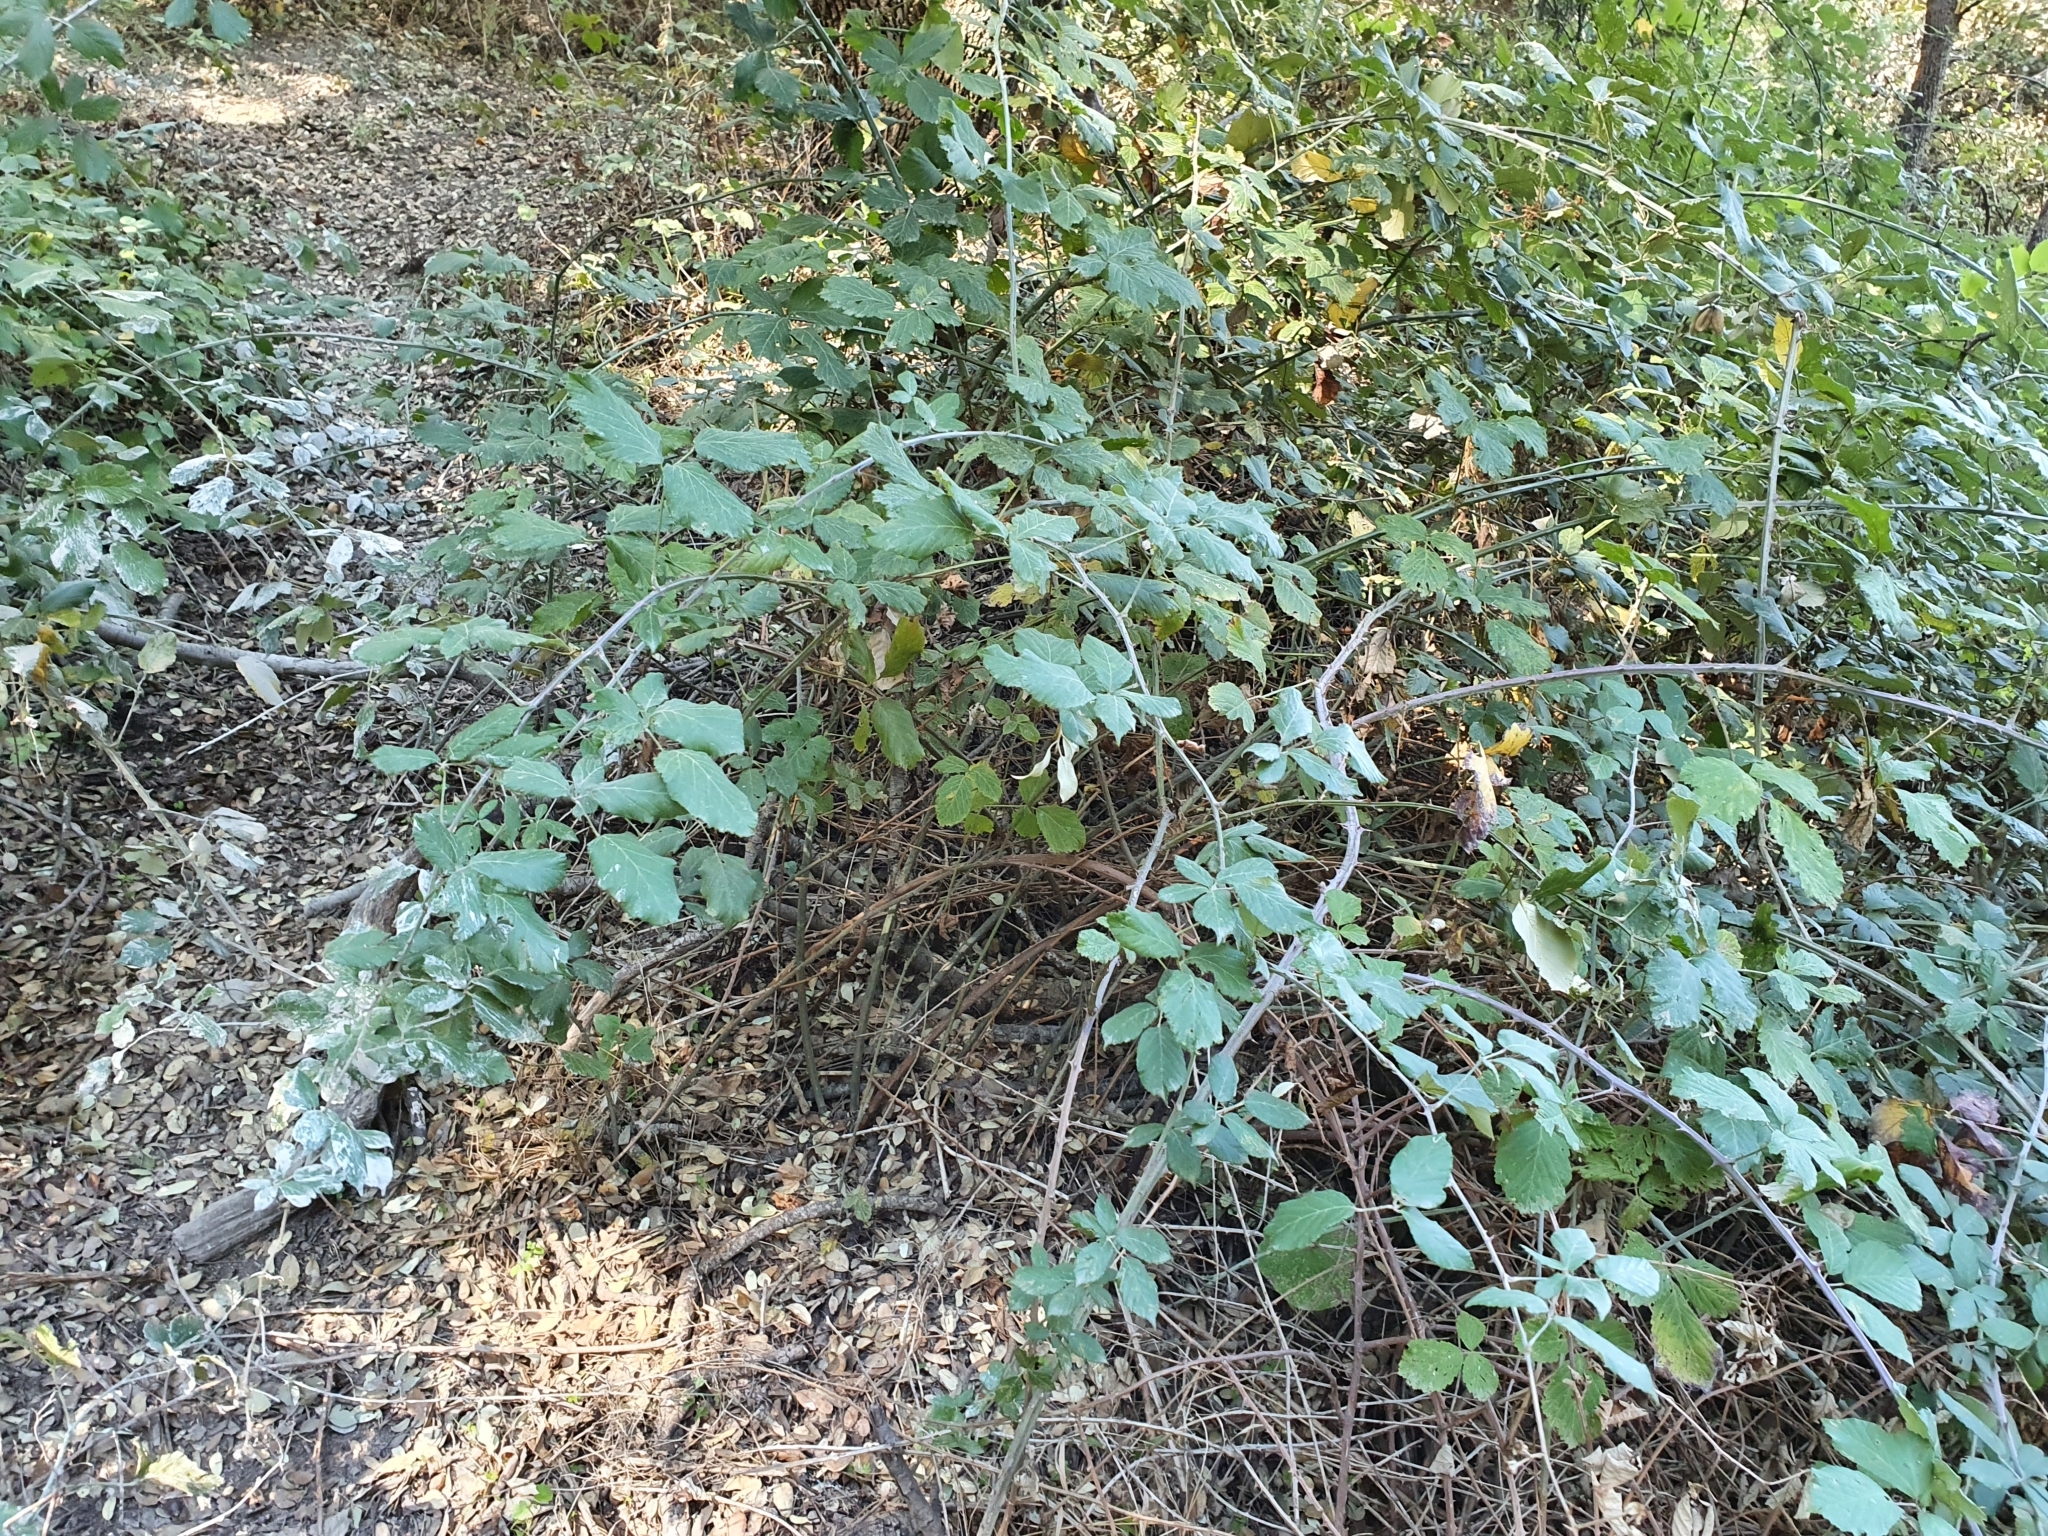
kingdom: Plantae
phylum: Tracheophyta
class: Magnoliopsida
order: Rosales
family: Rosaceae
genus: Rubus
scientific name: Rubus ulmifolius
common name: Elmleaf blackberry
